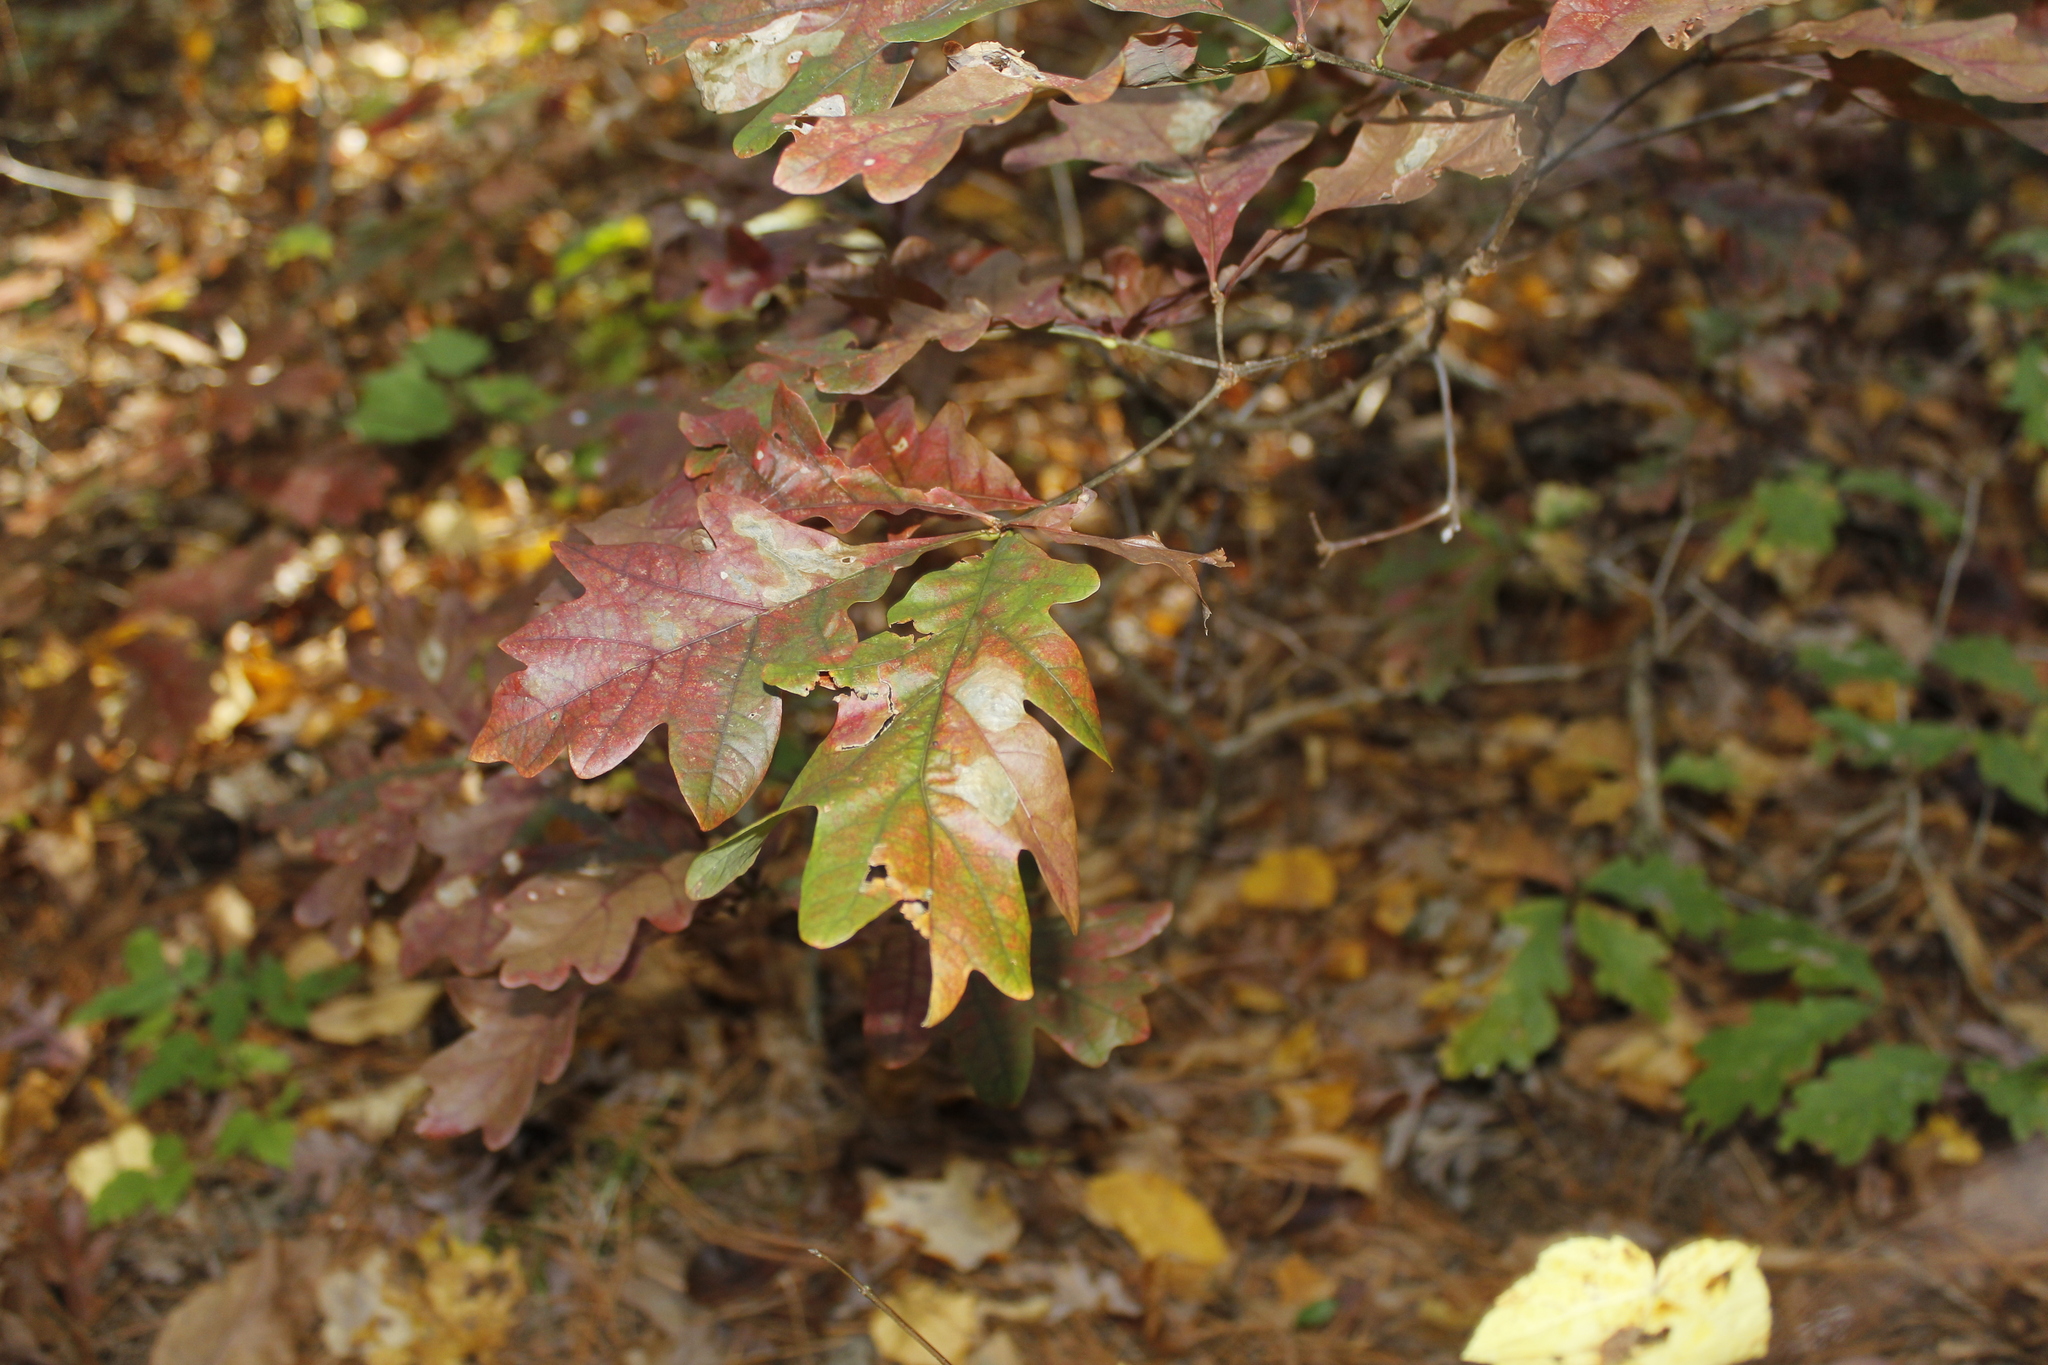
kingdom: Plantae
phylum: Tracheophyta
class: Magnoliopsida
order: Fagales
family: Fagaceae
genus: Quercus
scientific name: Quercus alba
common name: White oak
